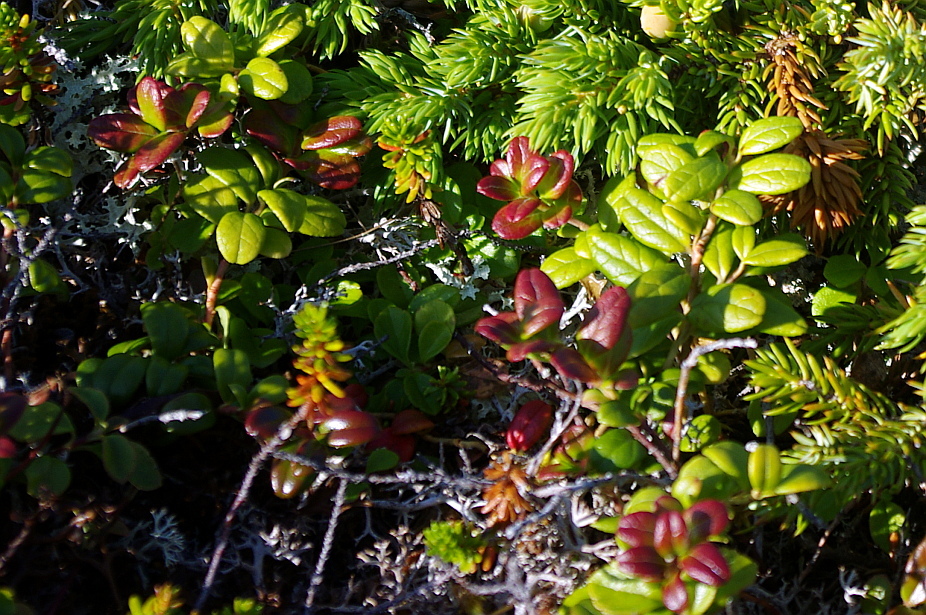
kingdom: Plantae
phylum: Tracheophyta
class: Magnoliopsida
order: Ericales
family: Ericaceae
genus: Vaccinium
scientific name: Vaccinium vitis-idaea
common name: Cowberry
